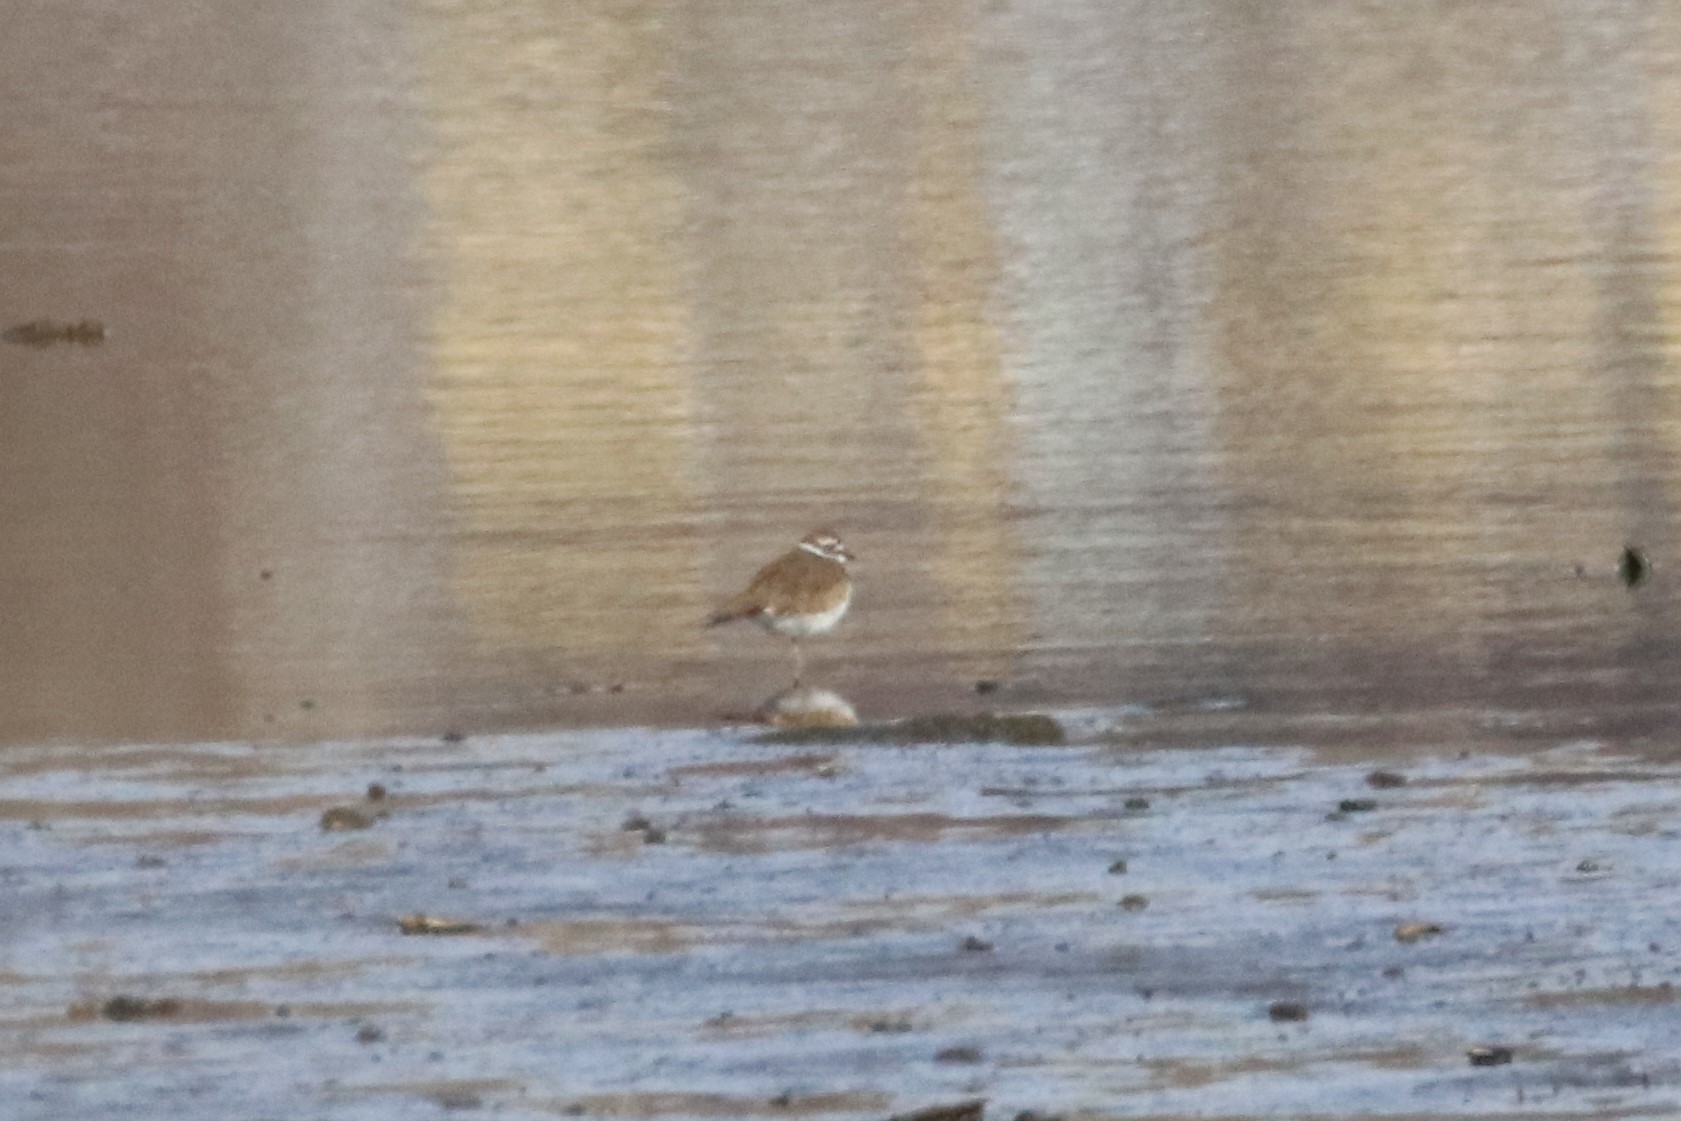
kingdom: Animalia
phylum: Chordata
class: Aves
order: Charadriiformes
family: Charadriidae
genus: Charadrius
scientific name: Charadrius vociferus
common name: Killdeer
